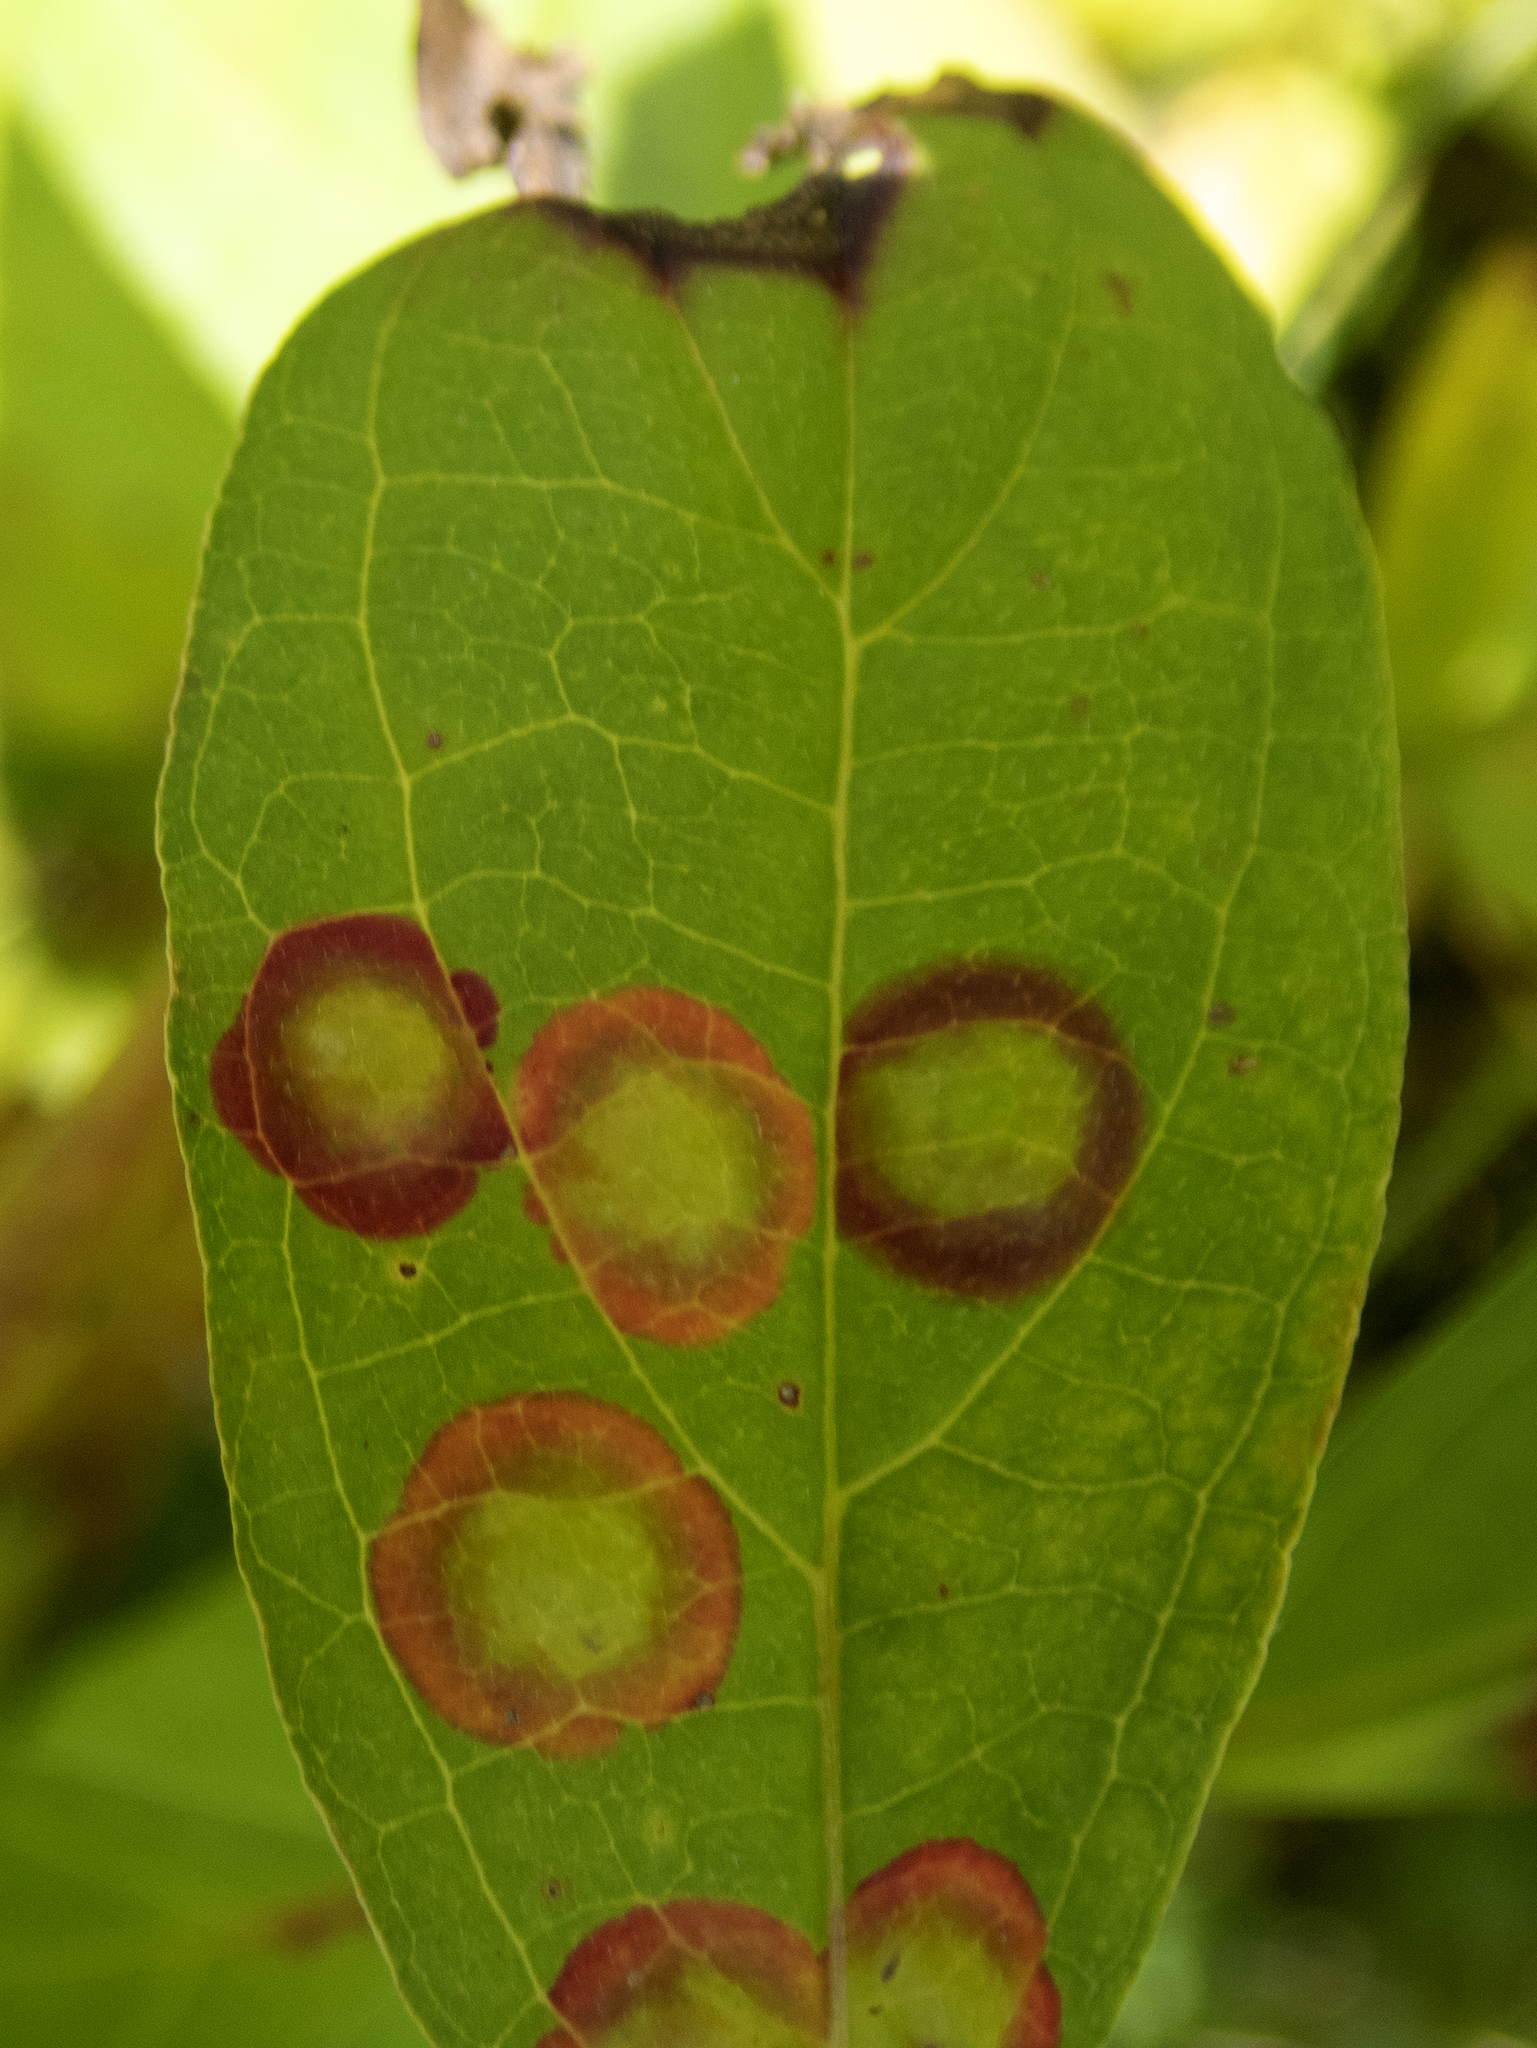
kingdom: Animalia
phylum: Arthropoda
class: Insecta
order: Diptera
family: Cecidomyiidae
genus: Parallelodiplosis
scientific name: Parallelodiplosis subtruncata
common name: Dogwood eyespot gall midge
